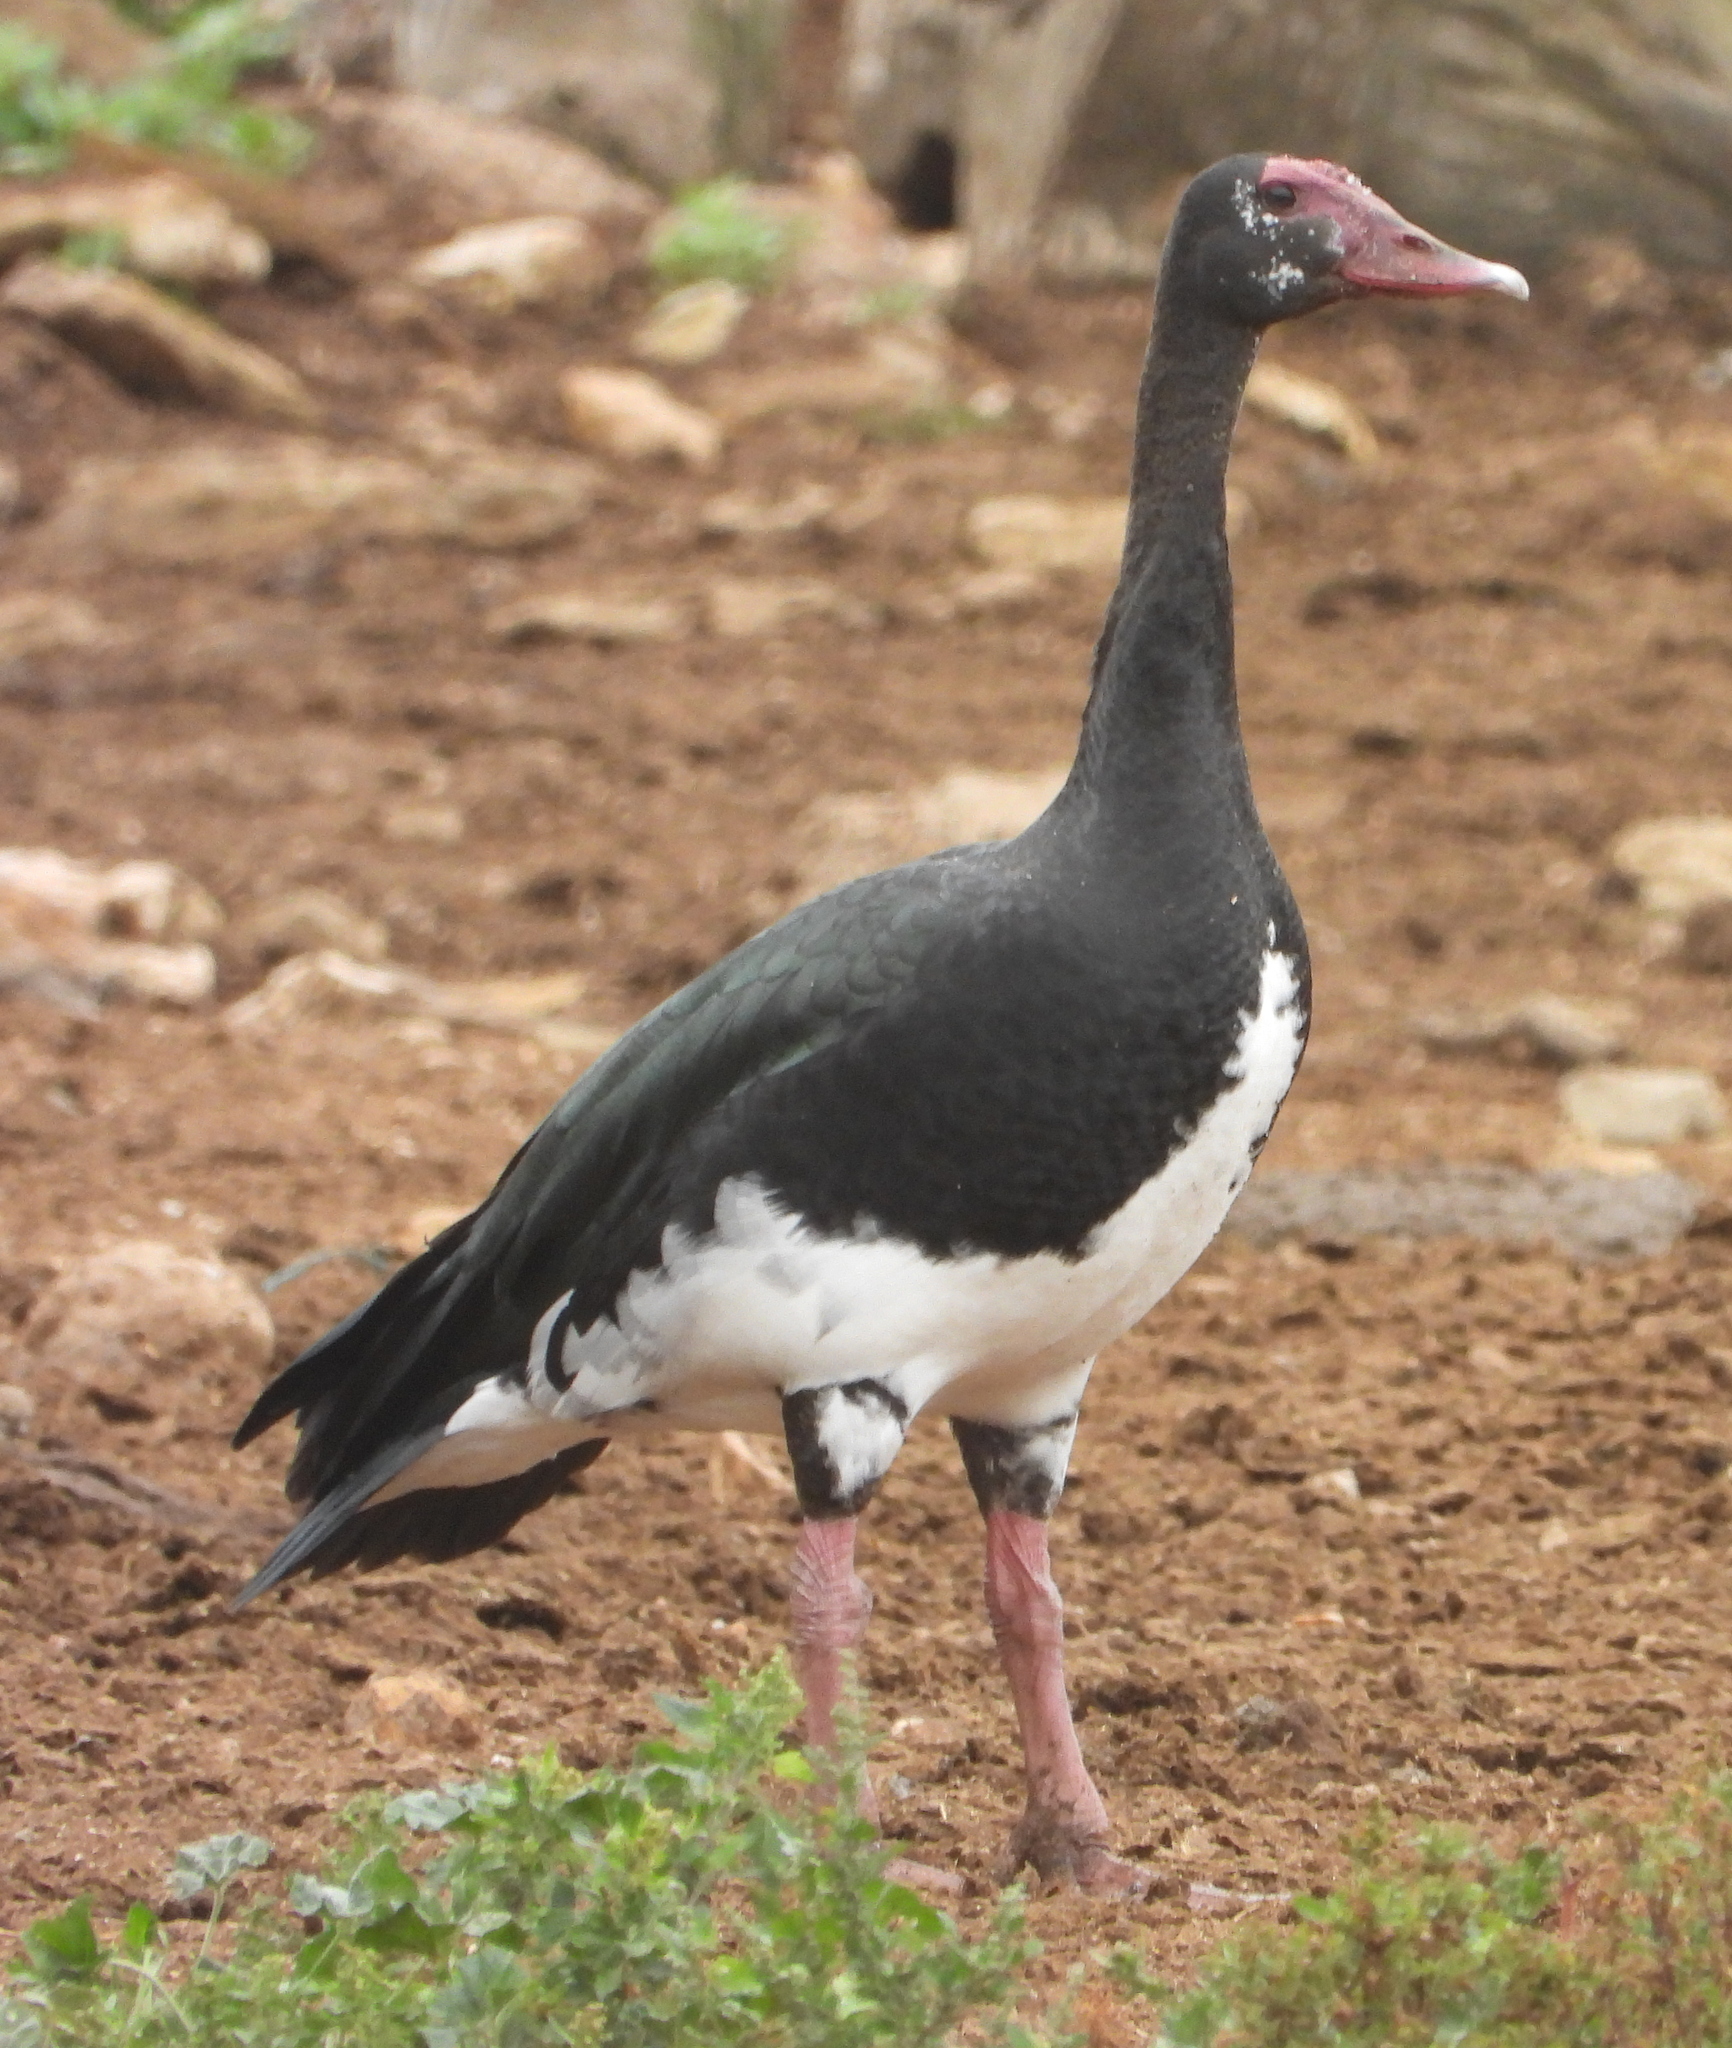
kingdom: Animalia
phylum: Chordata
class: Aves
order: Anseriformes
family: Anatidae
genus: Plectropterus
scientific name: Plectropterus gambensis
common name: Spur-winged goose
